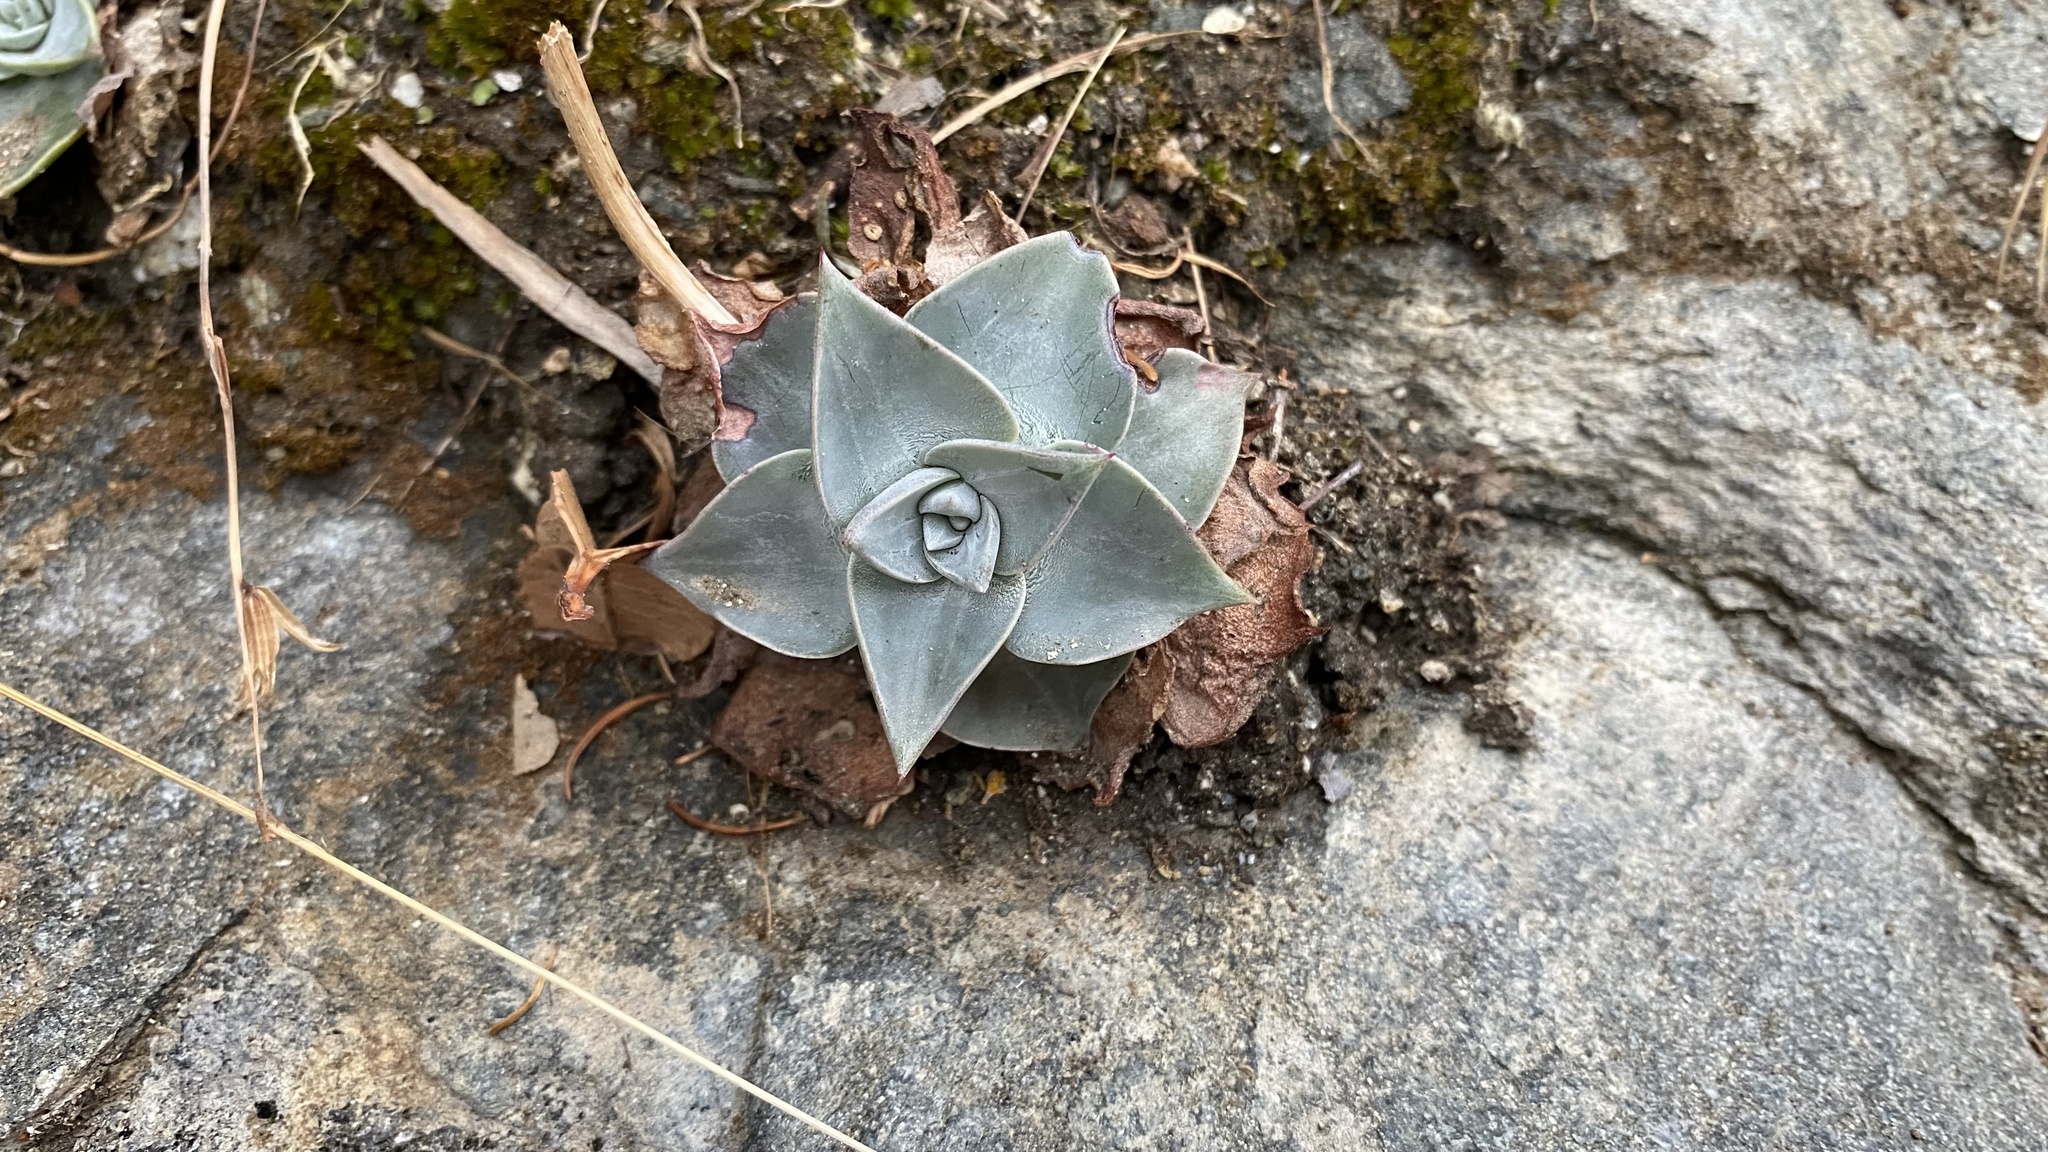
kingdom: Plantae
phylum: Tracheophyta
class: Magnoliopsida
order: Saxifragales
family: Crassulaceae
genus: Dudleya
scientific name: Dudleya cymosa
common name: Canyon dudleya
